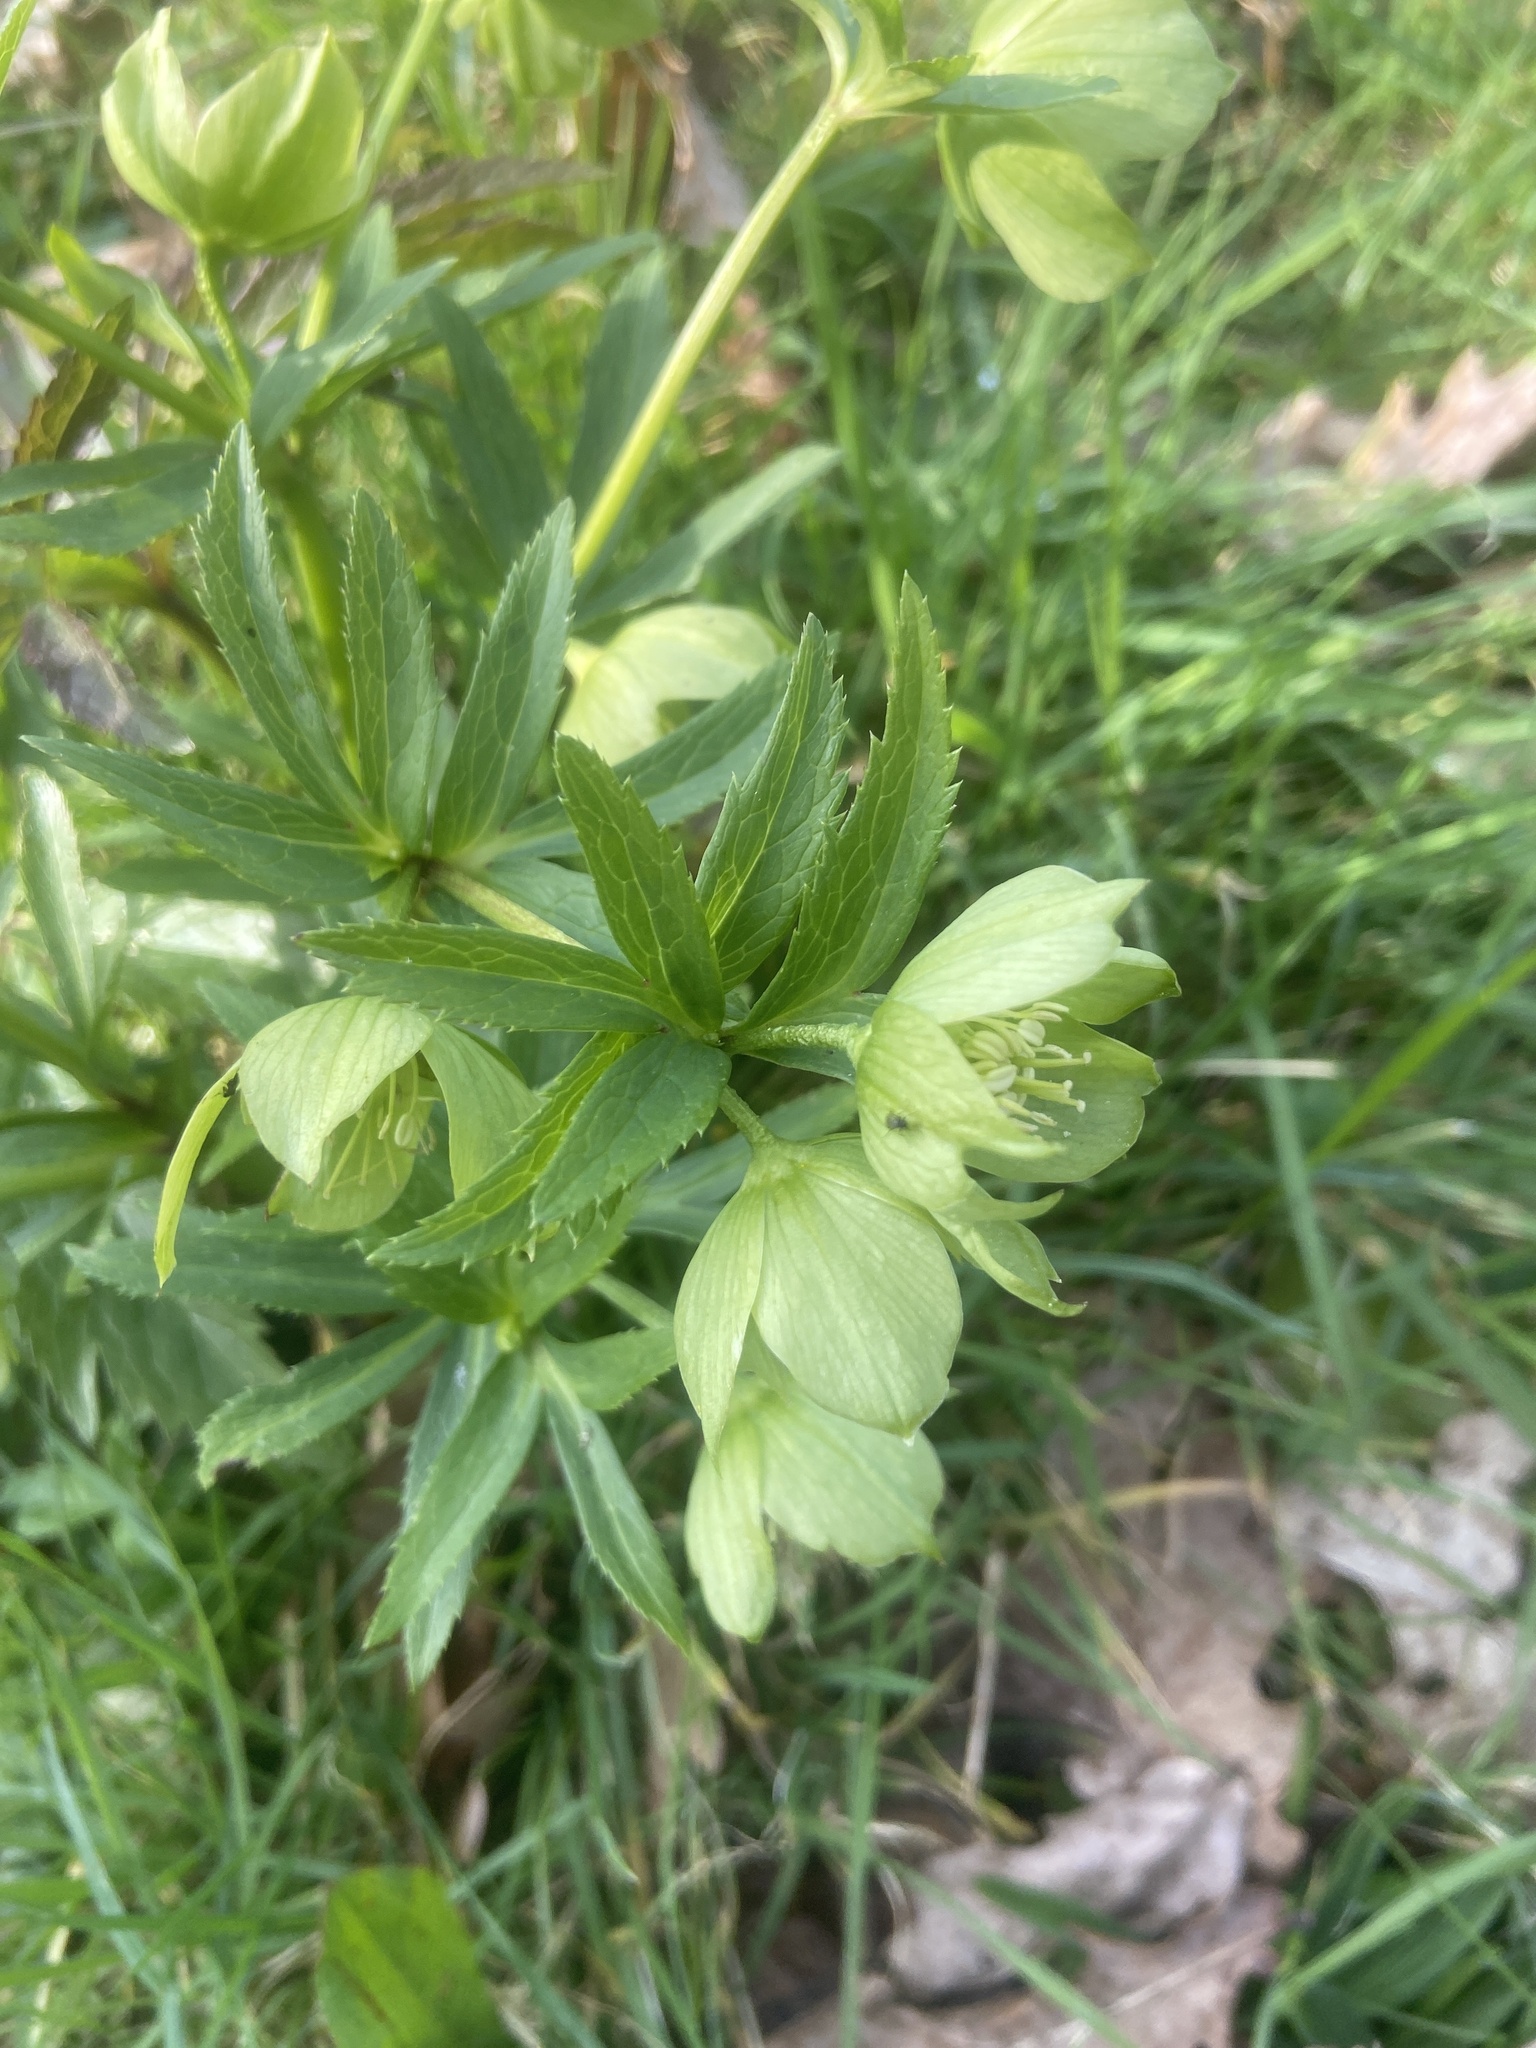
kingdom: Plantae
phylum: Tracheophyta
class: Magnoliopsida
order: Ranunculales
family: Ranunculaceae
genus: Helleborus
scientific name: Helleborus viridis
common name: Green hellebore
